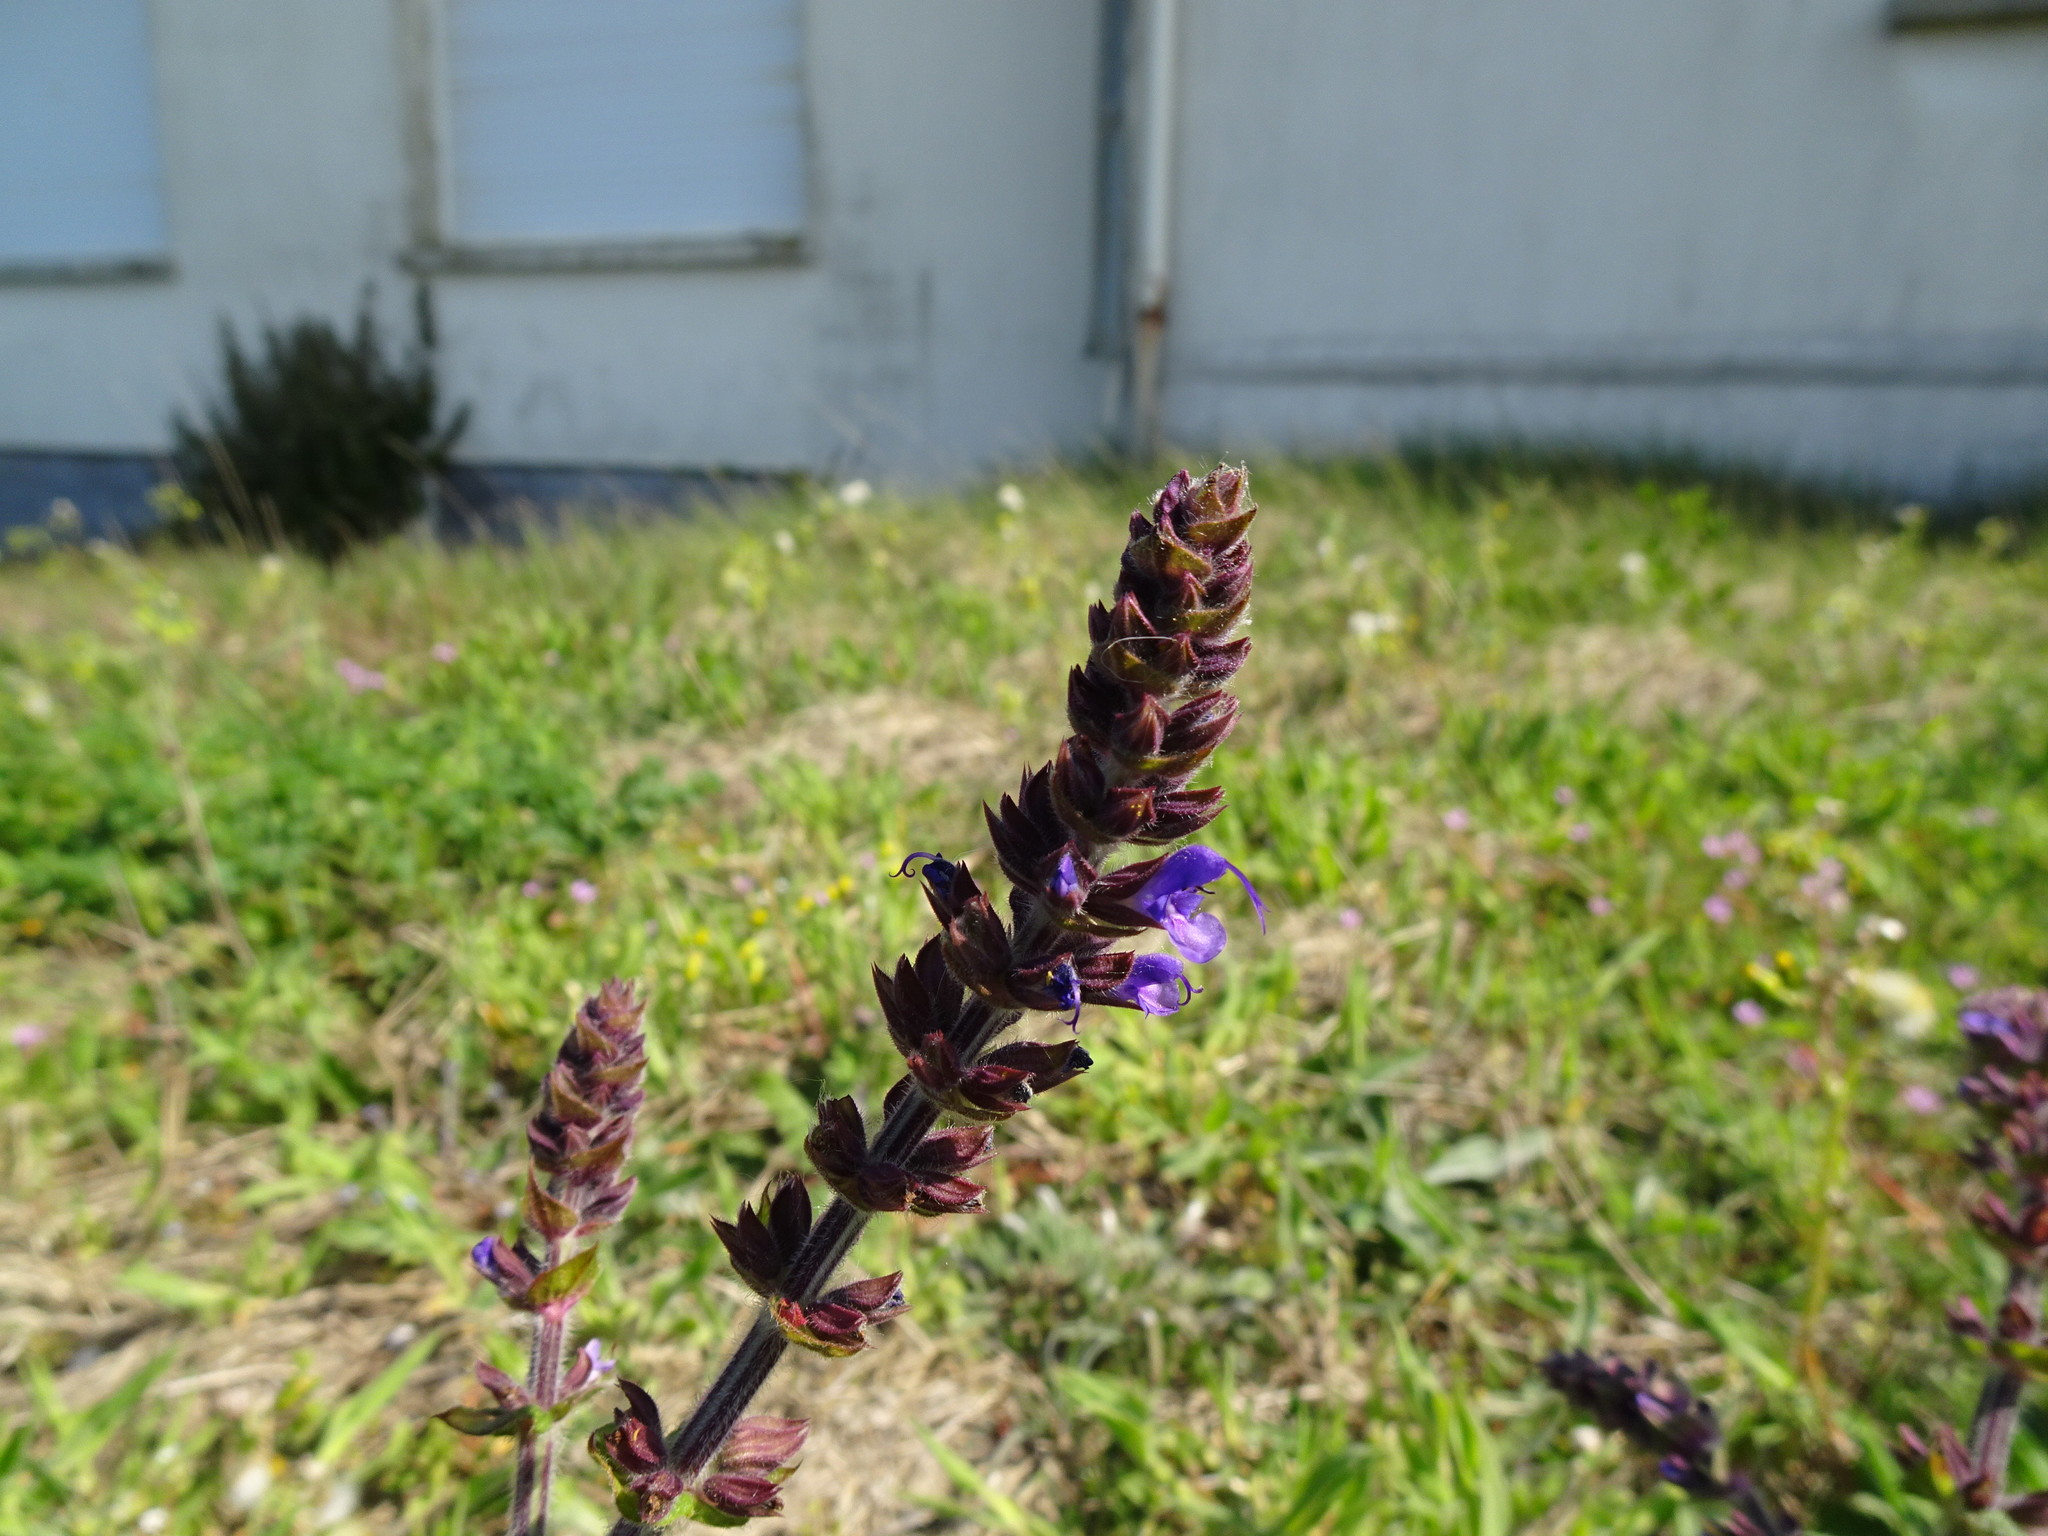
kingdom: Plantae
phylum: Tracheophyta
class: Magnoliopsida
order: Lamiales
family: Lamiaceae
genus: Salvia
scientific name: Salvia verbenaca
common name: Wild clary
